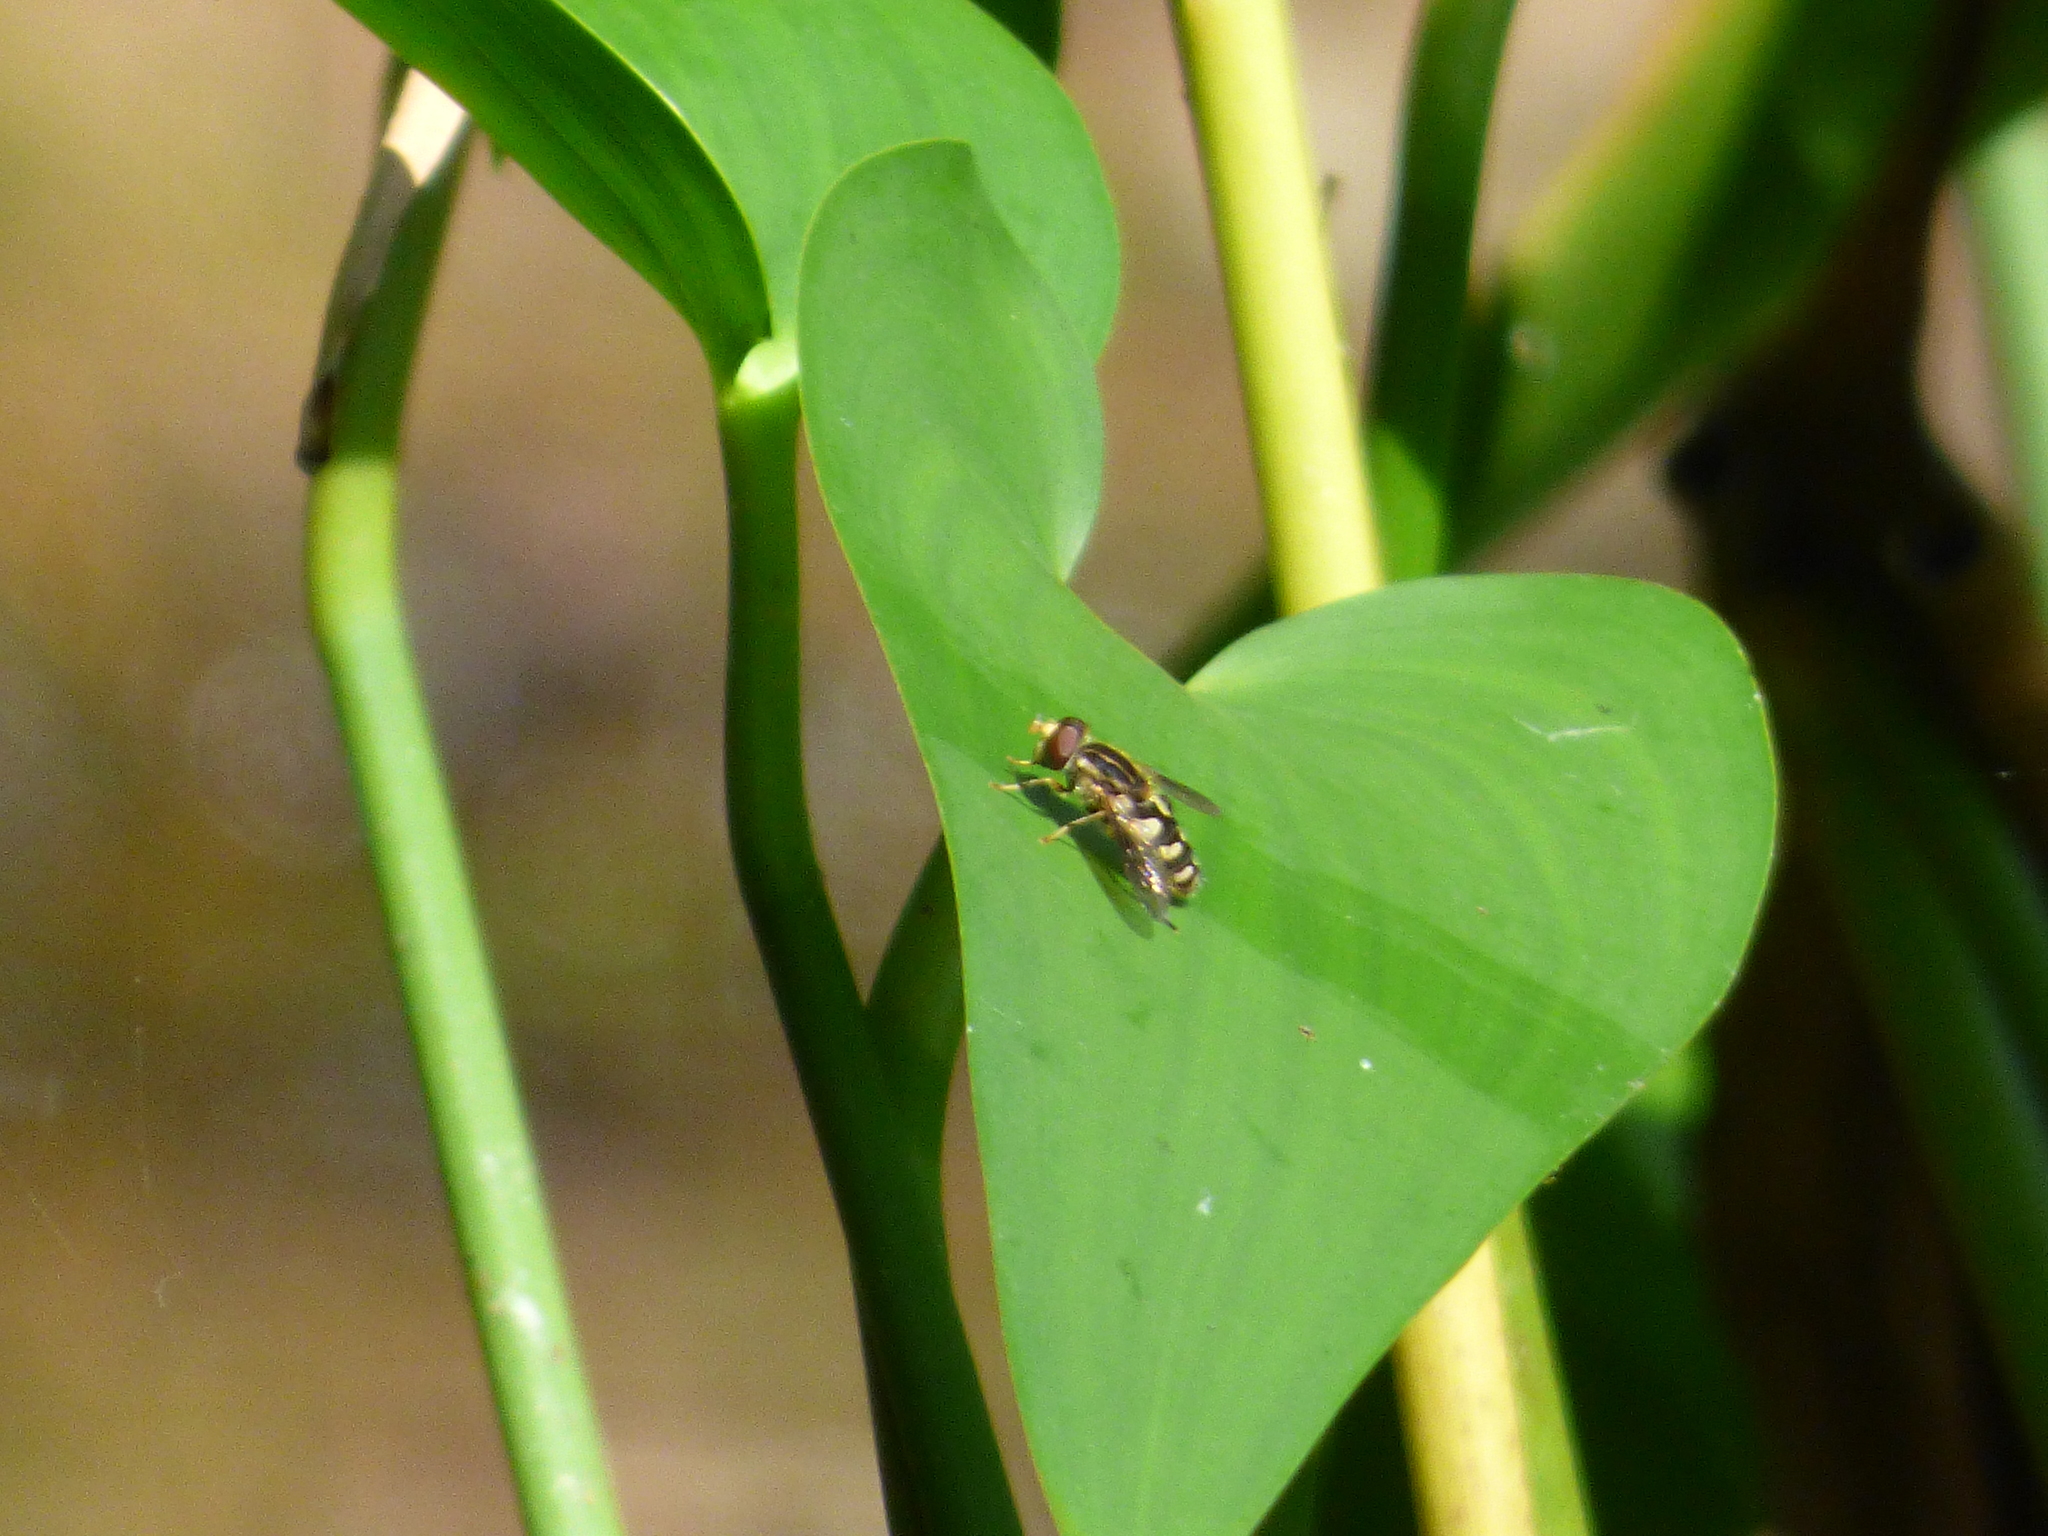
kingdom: Animalia
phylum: Arthropoda
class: Insecta
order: Diptera
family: Syrphidae
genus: Parhelophilus
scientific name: Parhelophilus flavifacies
